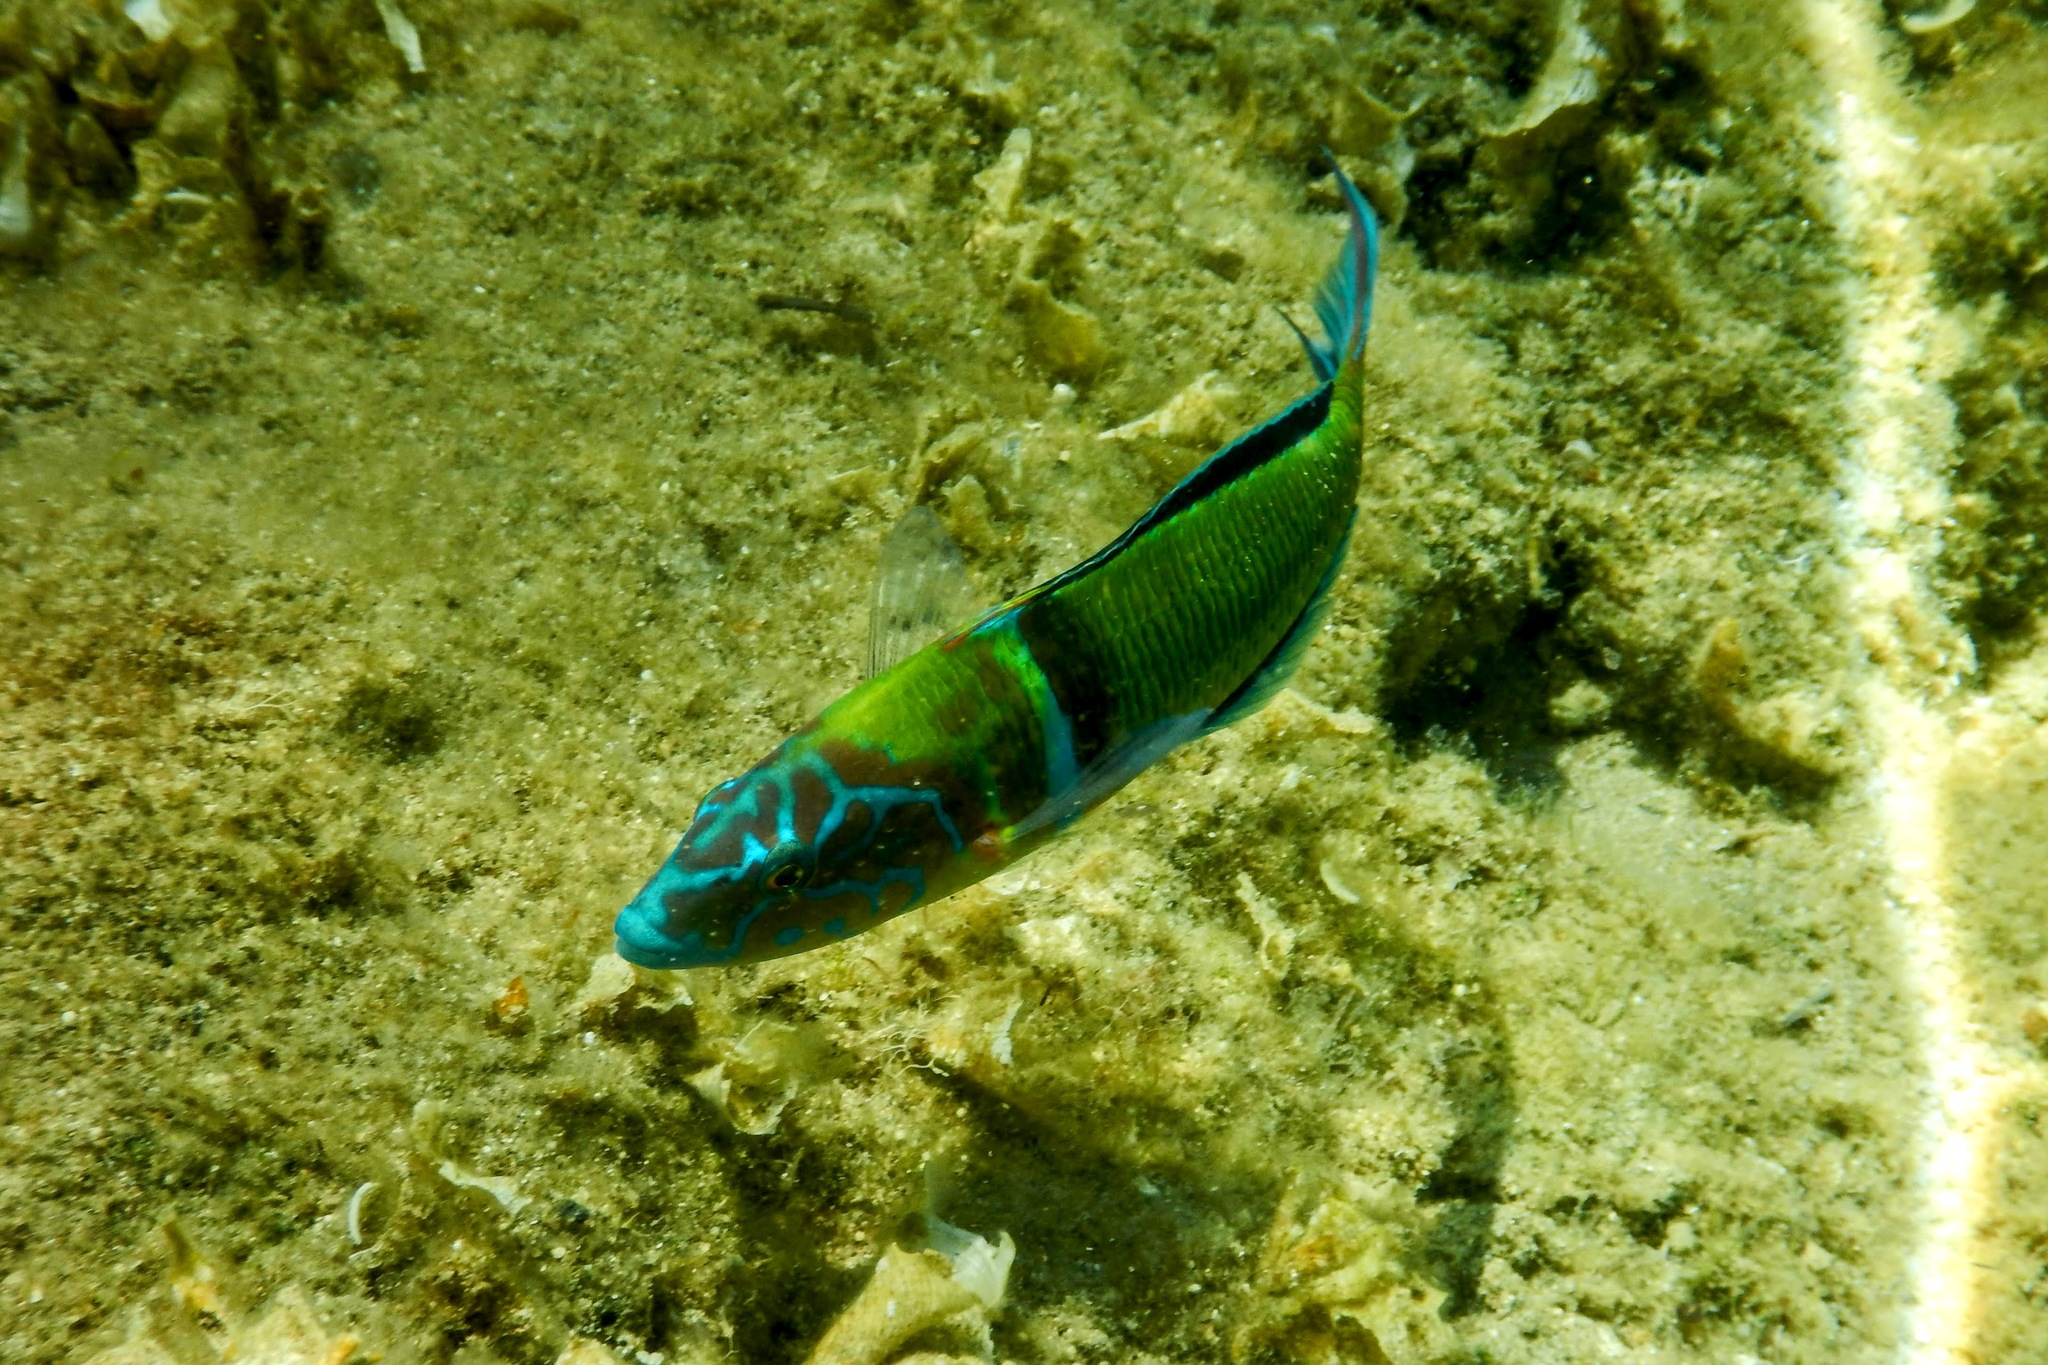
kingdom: Animalia
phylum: Chordata
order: Perciformes
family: Labridae
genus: Thalassoma
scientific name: Thalassoma pavo
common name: Ornate wrasse
